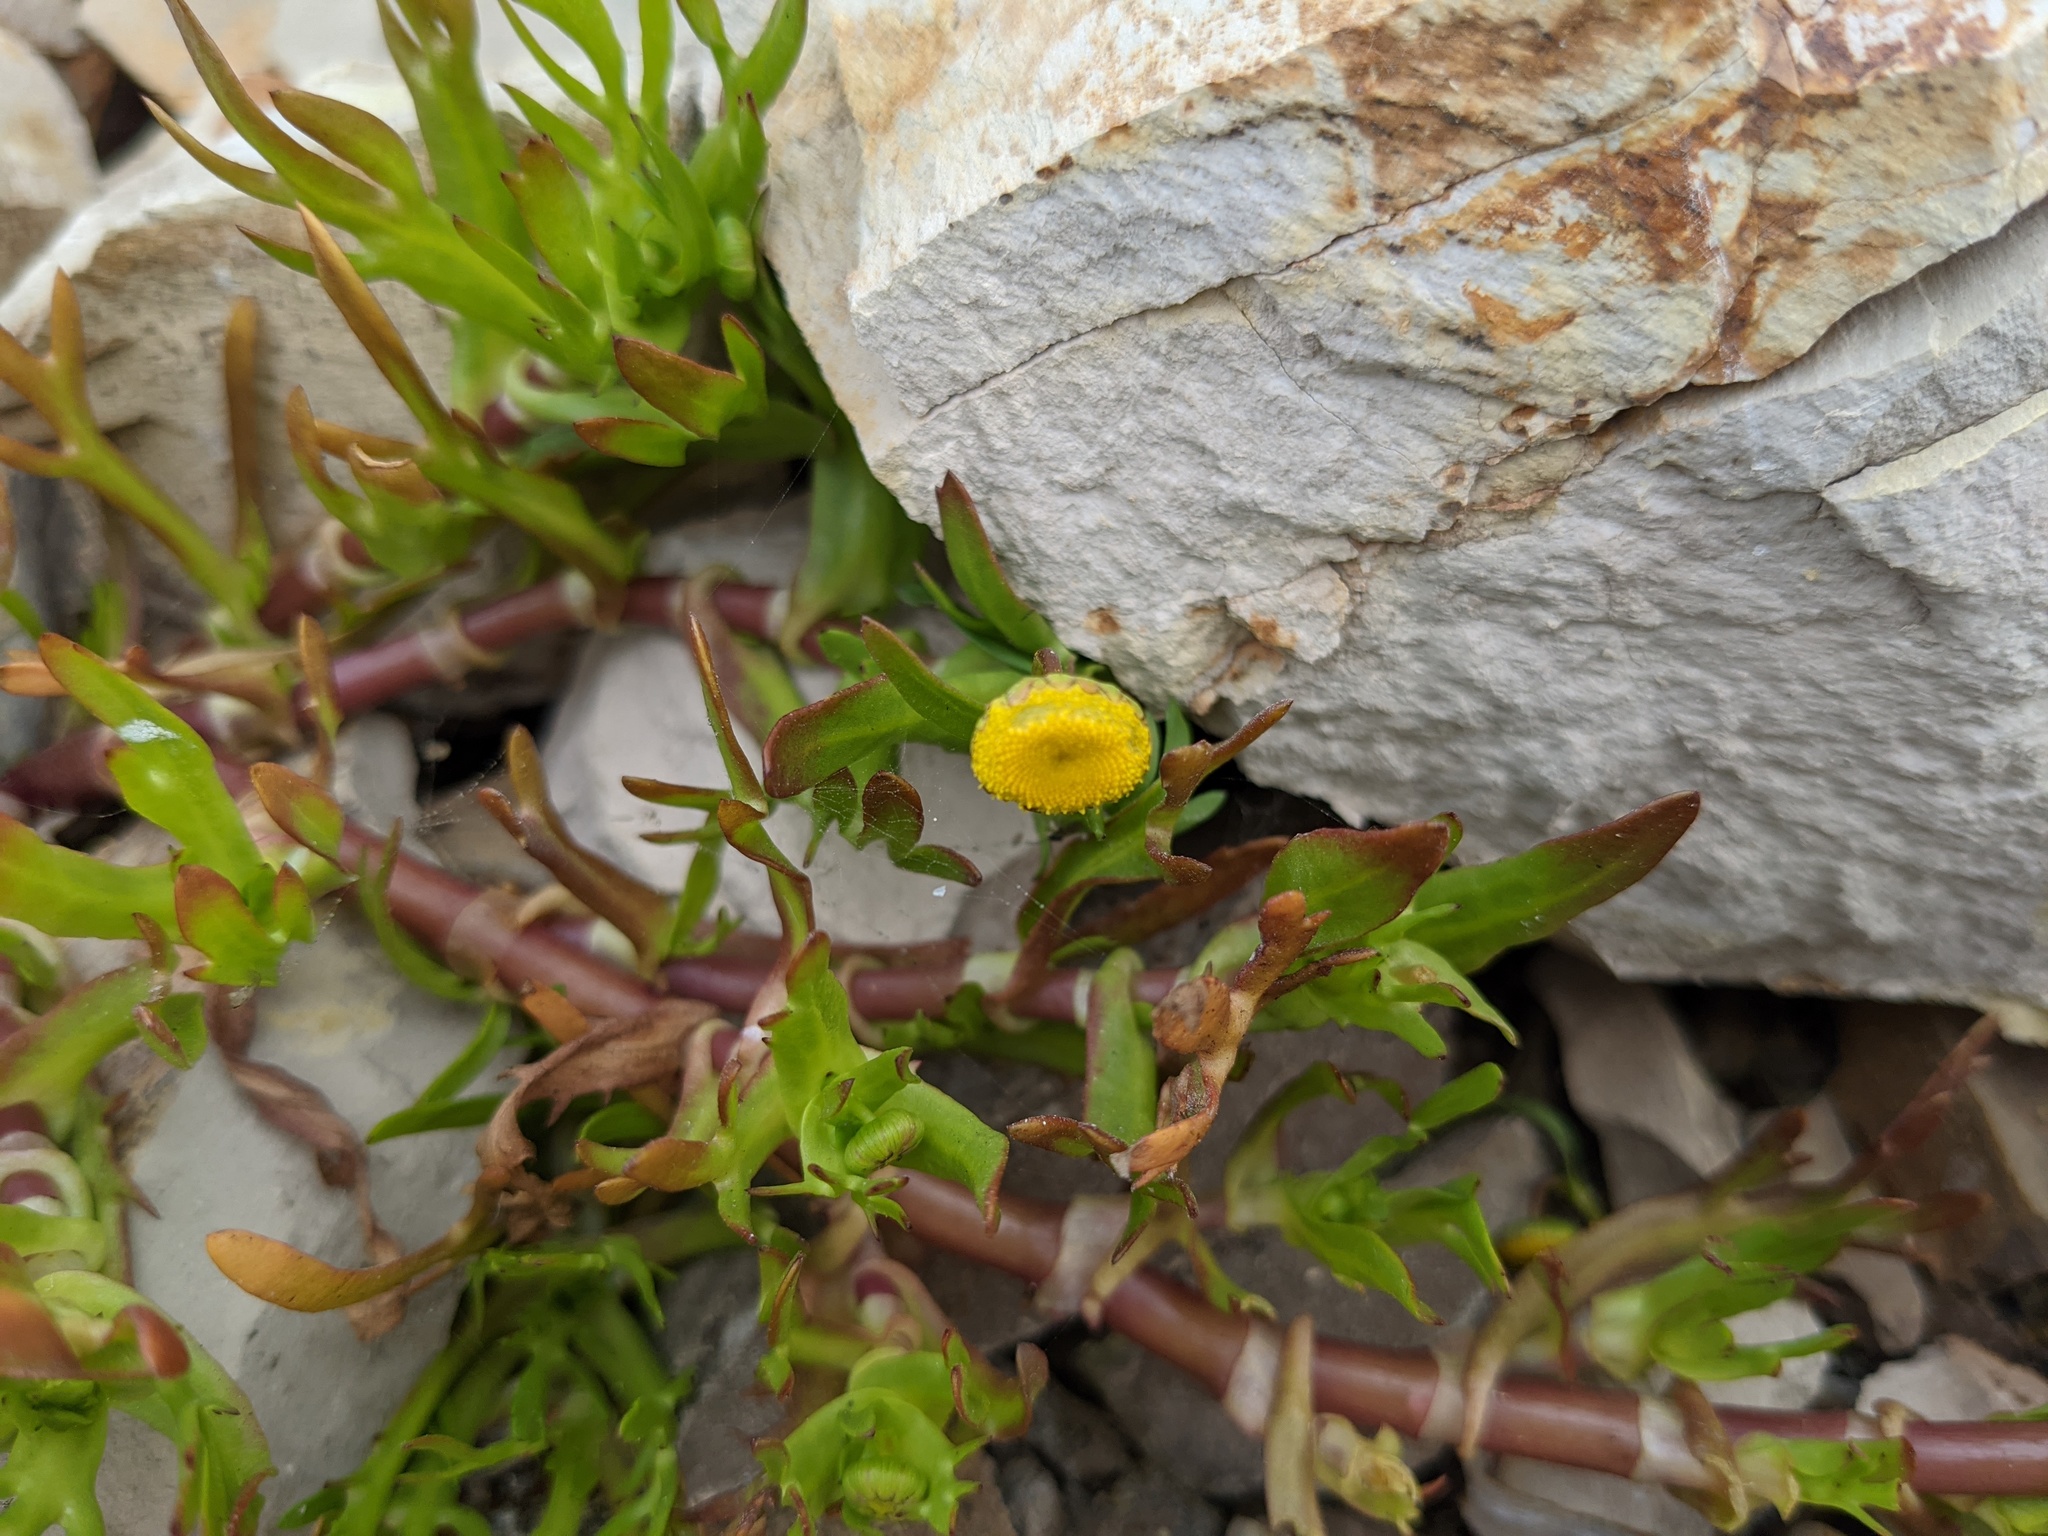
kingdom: Plantae
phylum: Tracheophyta
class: Magnoliopsida
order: Asterales
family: Asteraceae
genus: Cotula
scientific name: Cotula coronopifolia
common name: Buttonweed
